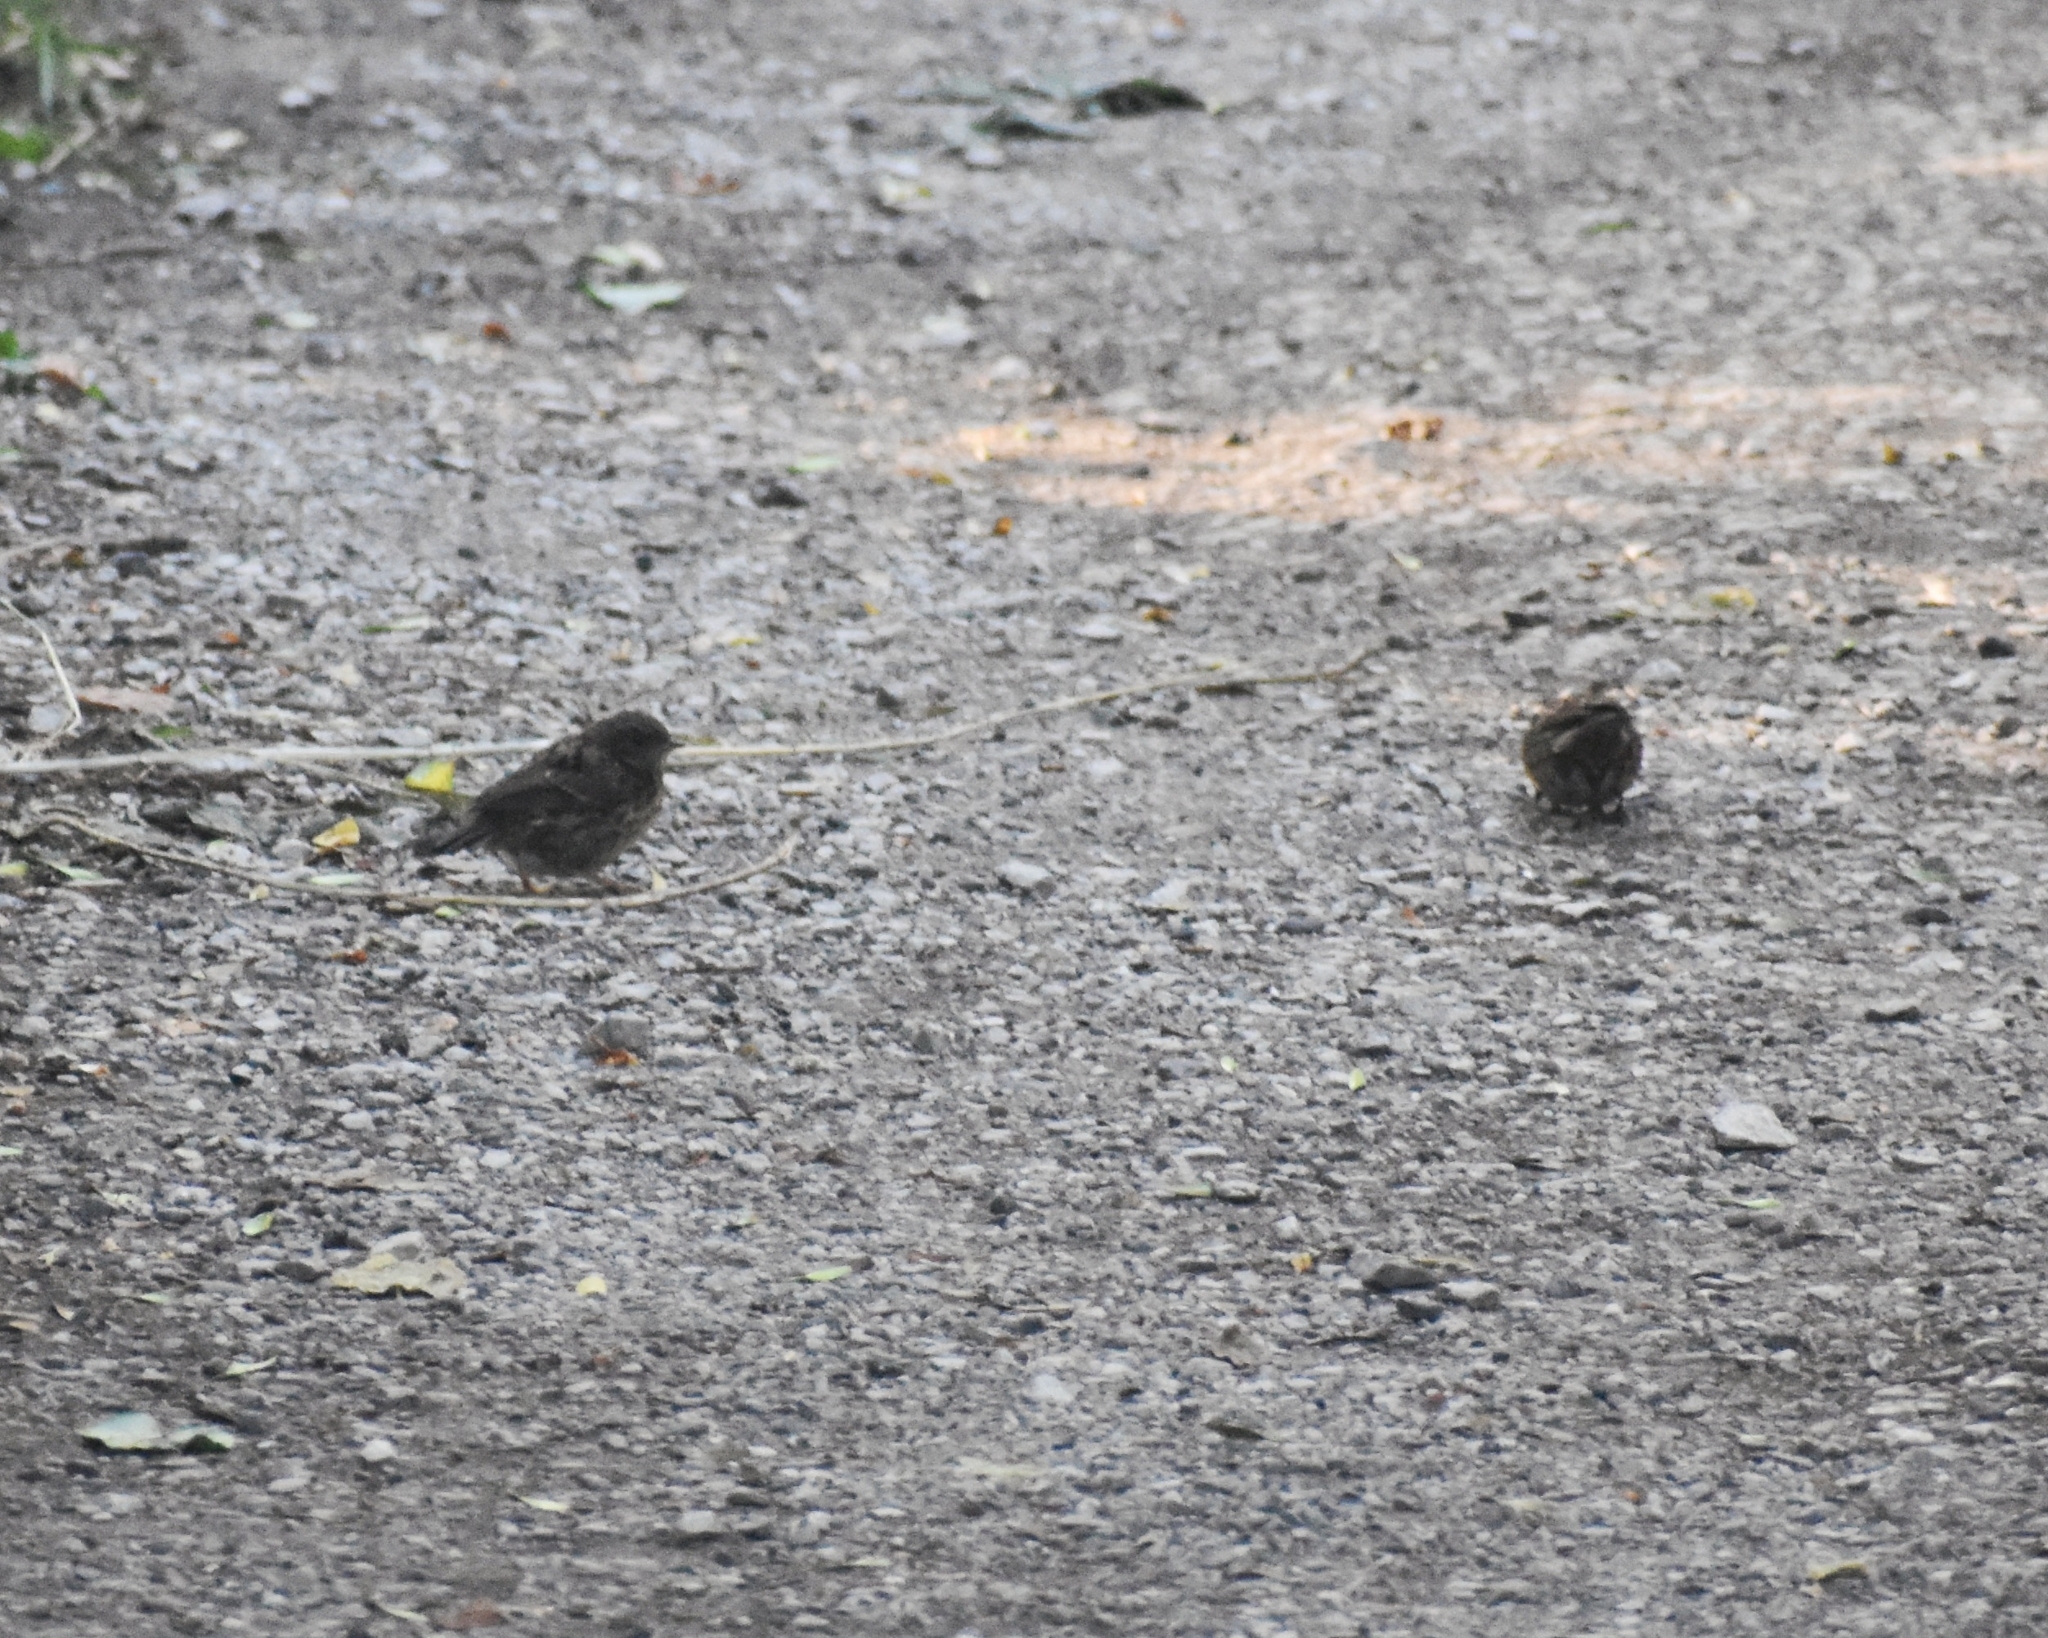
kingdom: Animalia
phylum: Chordata
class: Aves
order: Passeriformes
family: Prunellidae
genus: Prunella
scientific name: Prunella modularis
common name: Dunnock
